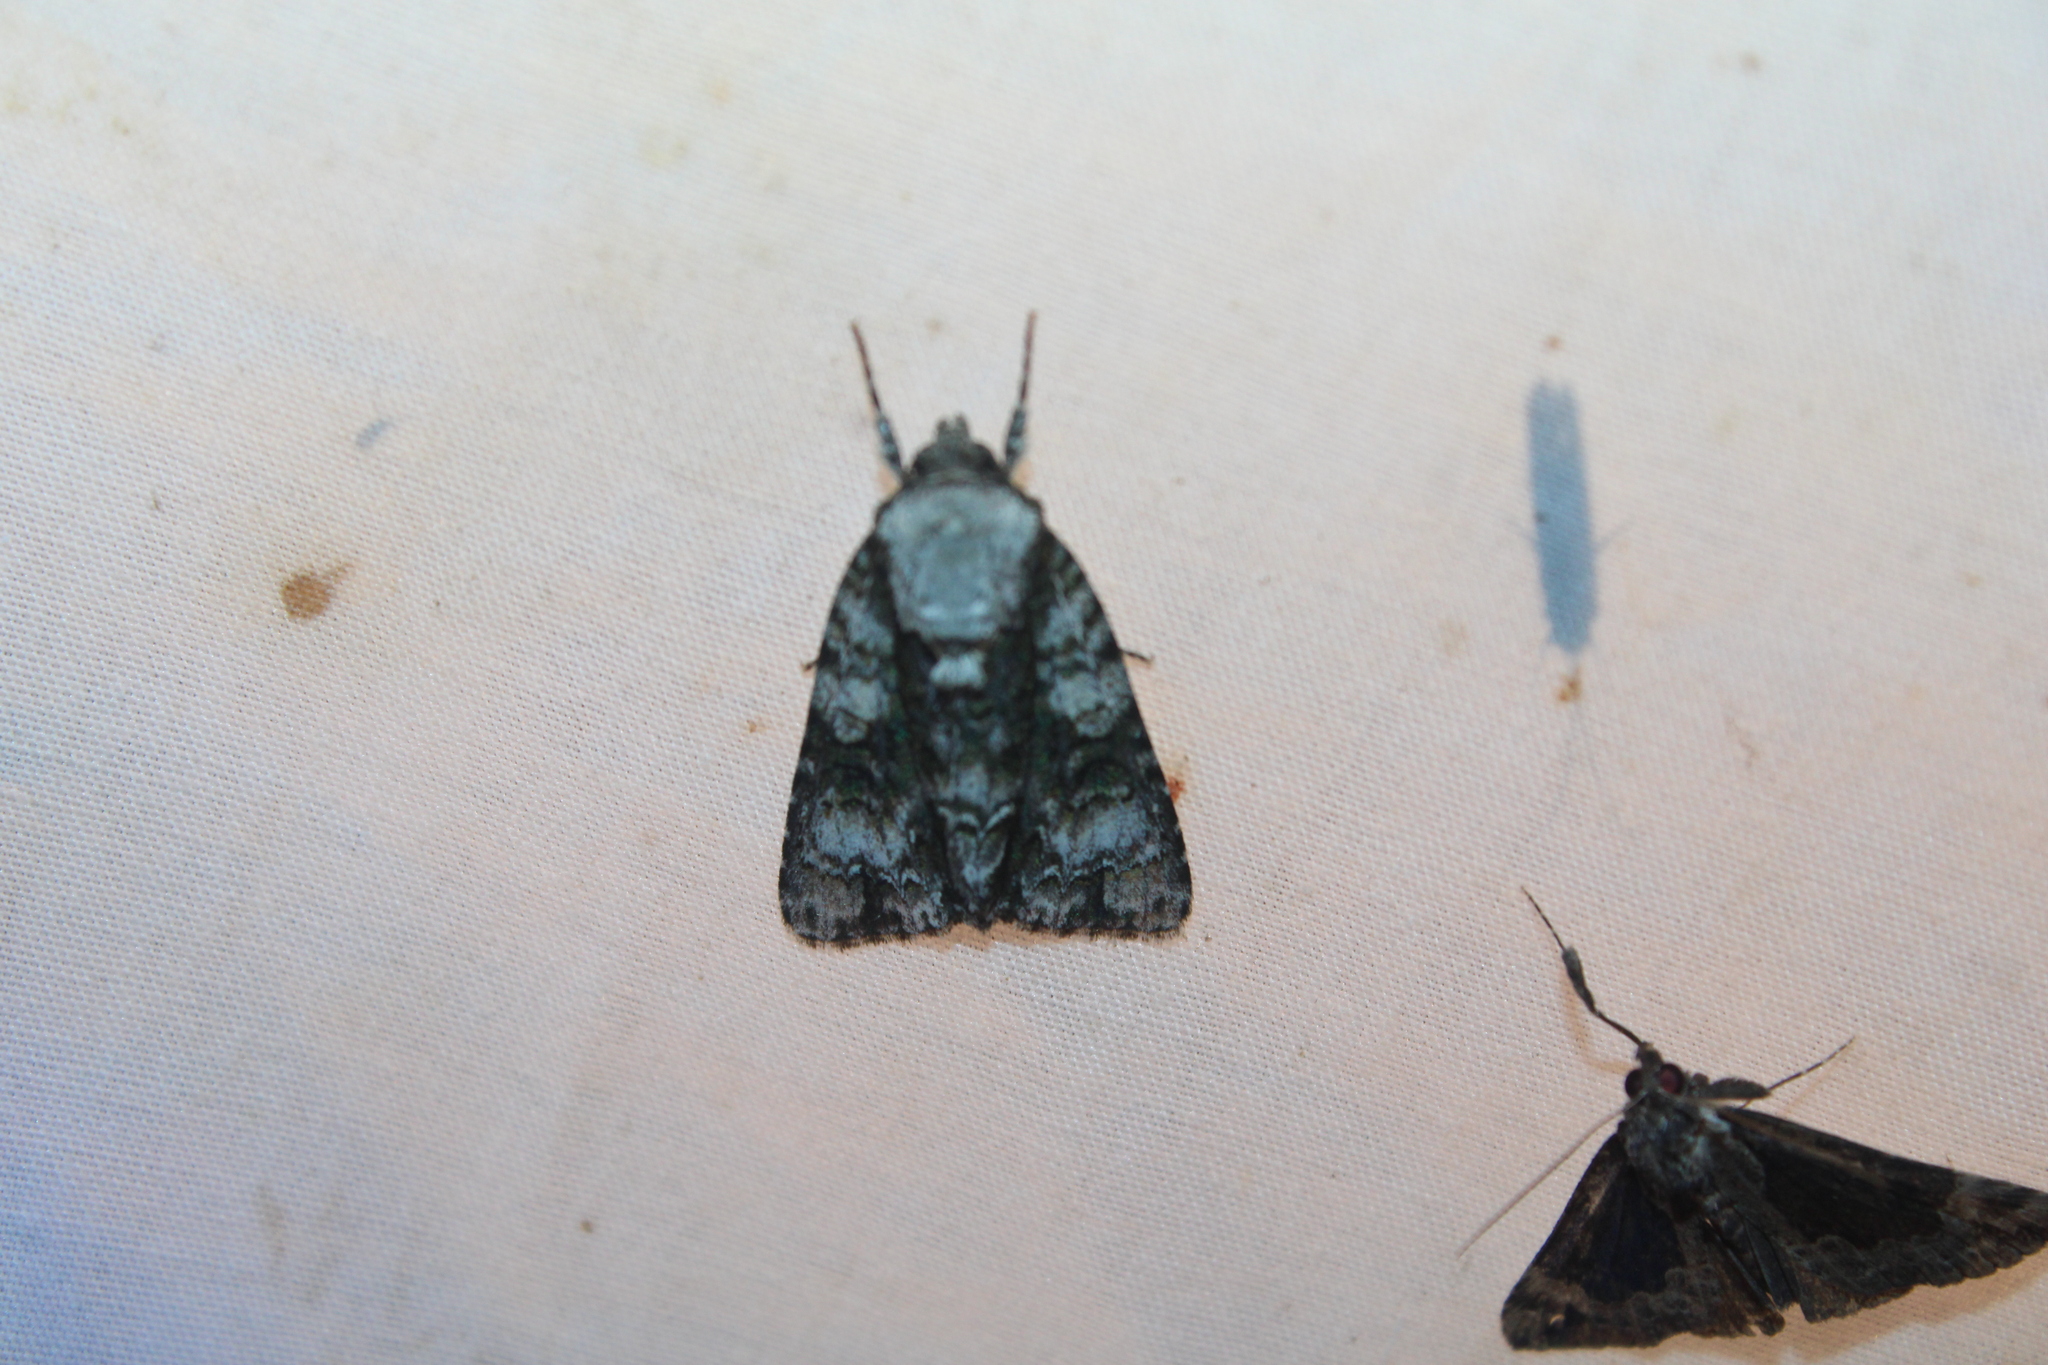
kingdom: Animalia
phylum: Arthropoda
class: Insecta
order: Lepidoptera
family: Noctuidae
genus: Acronicta
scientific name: Acronicta superans
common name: Splendid dagger
